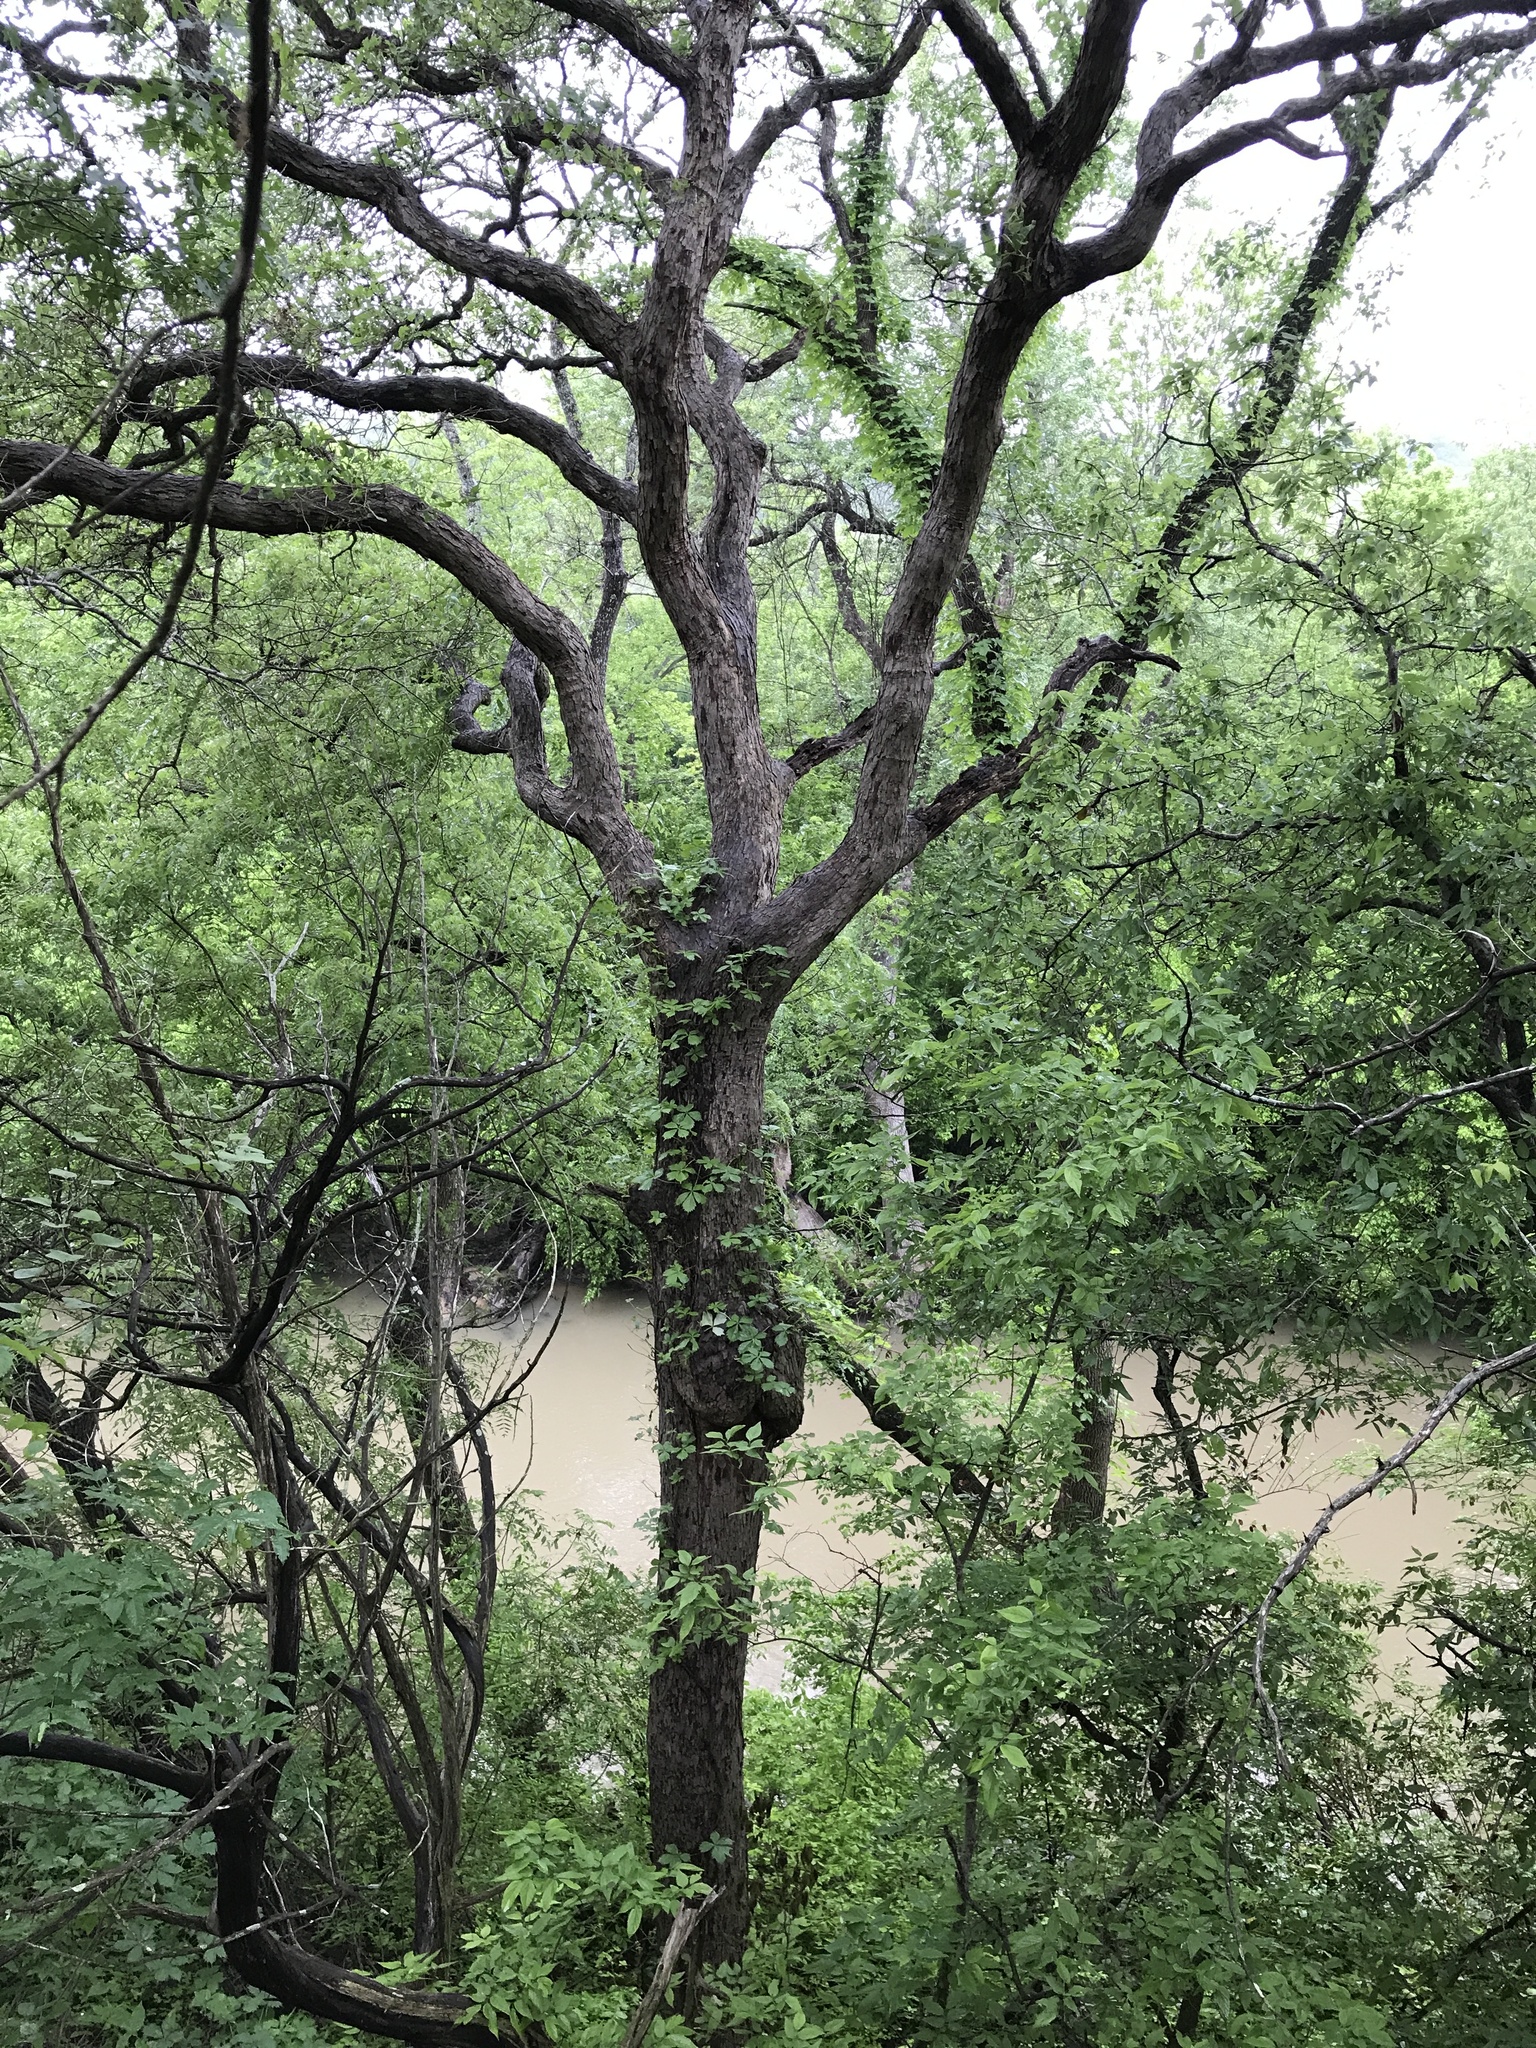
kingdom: Plantae
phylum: Tracheophyta
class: Magnoliopsida
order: Fagales
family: Fagaceae
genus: Quercus
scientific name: Quercus sinuata
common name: Durand oak
